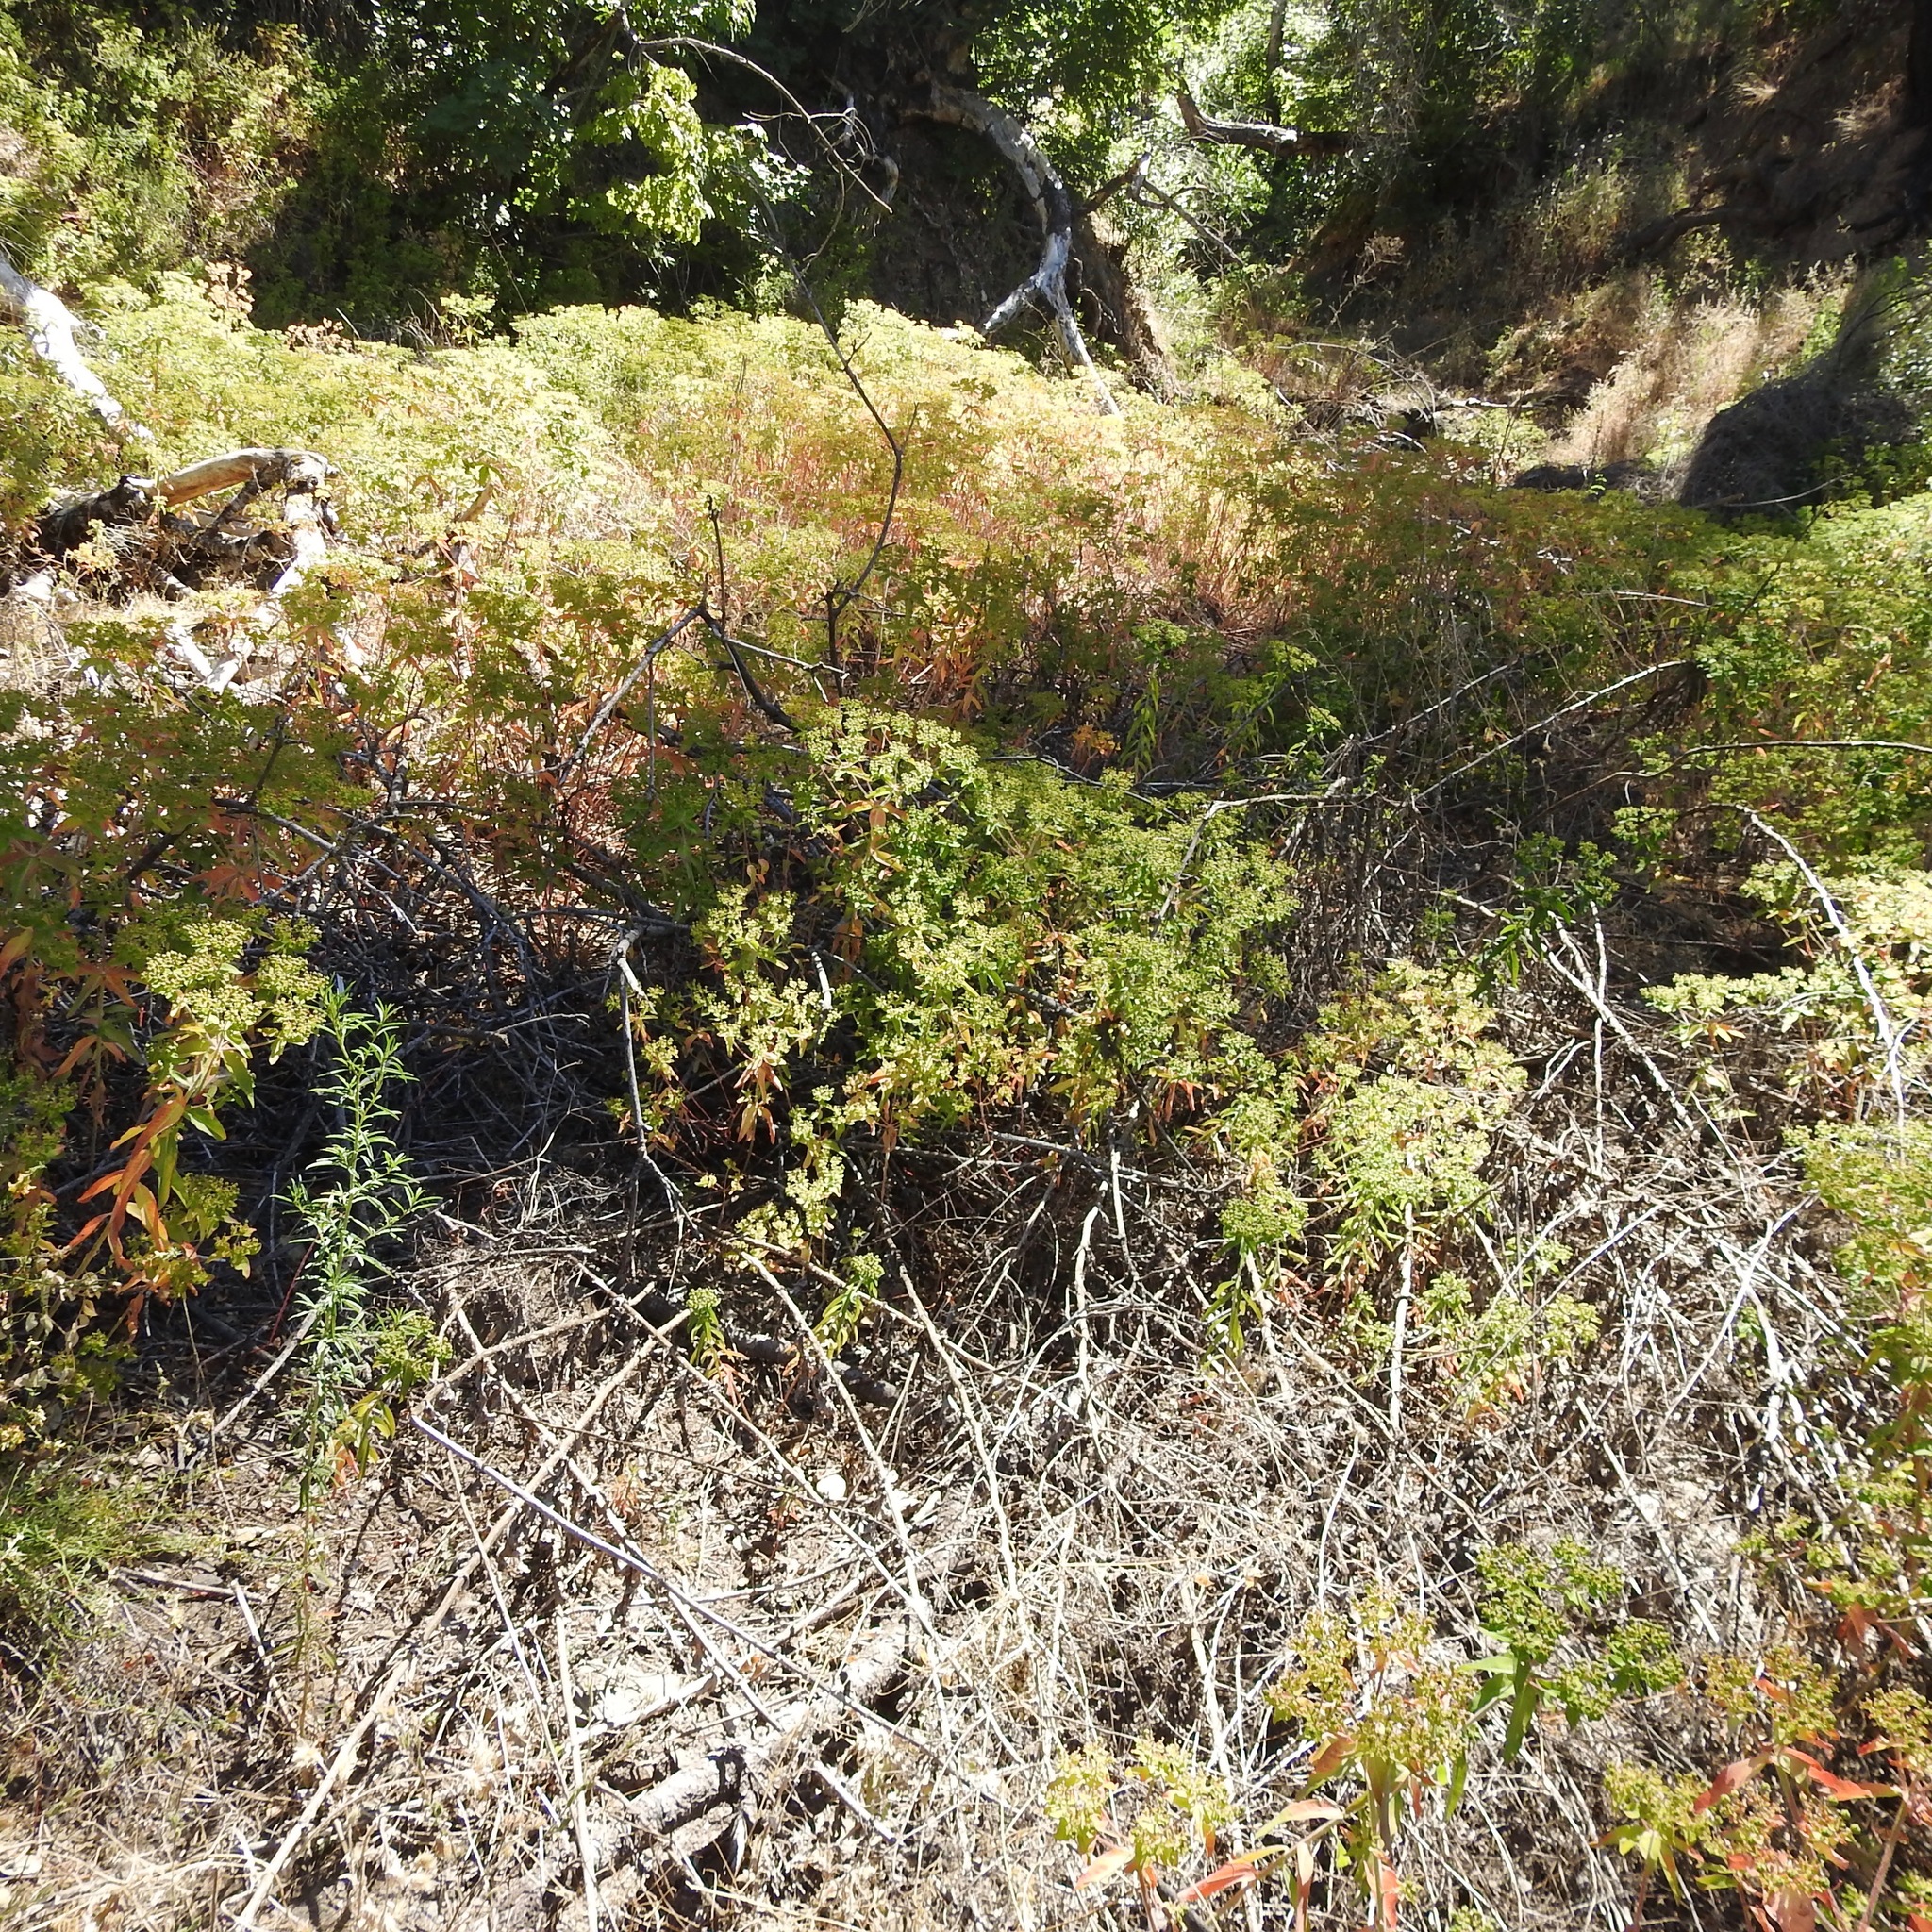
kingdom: Plantae
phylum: Tracheophyta
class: Magnoliopsida
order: Malpighiales
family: Euphorbiaceae
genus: Euphorbia
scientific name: Euphorbia oblongata
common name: Balkan spurge
